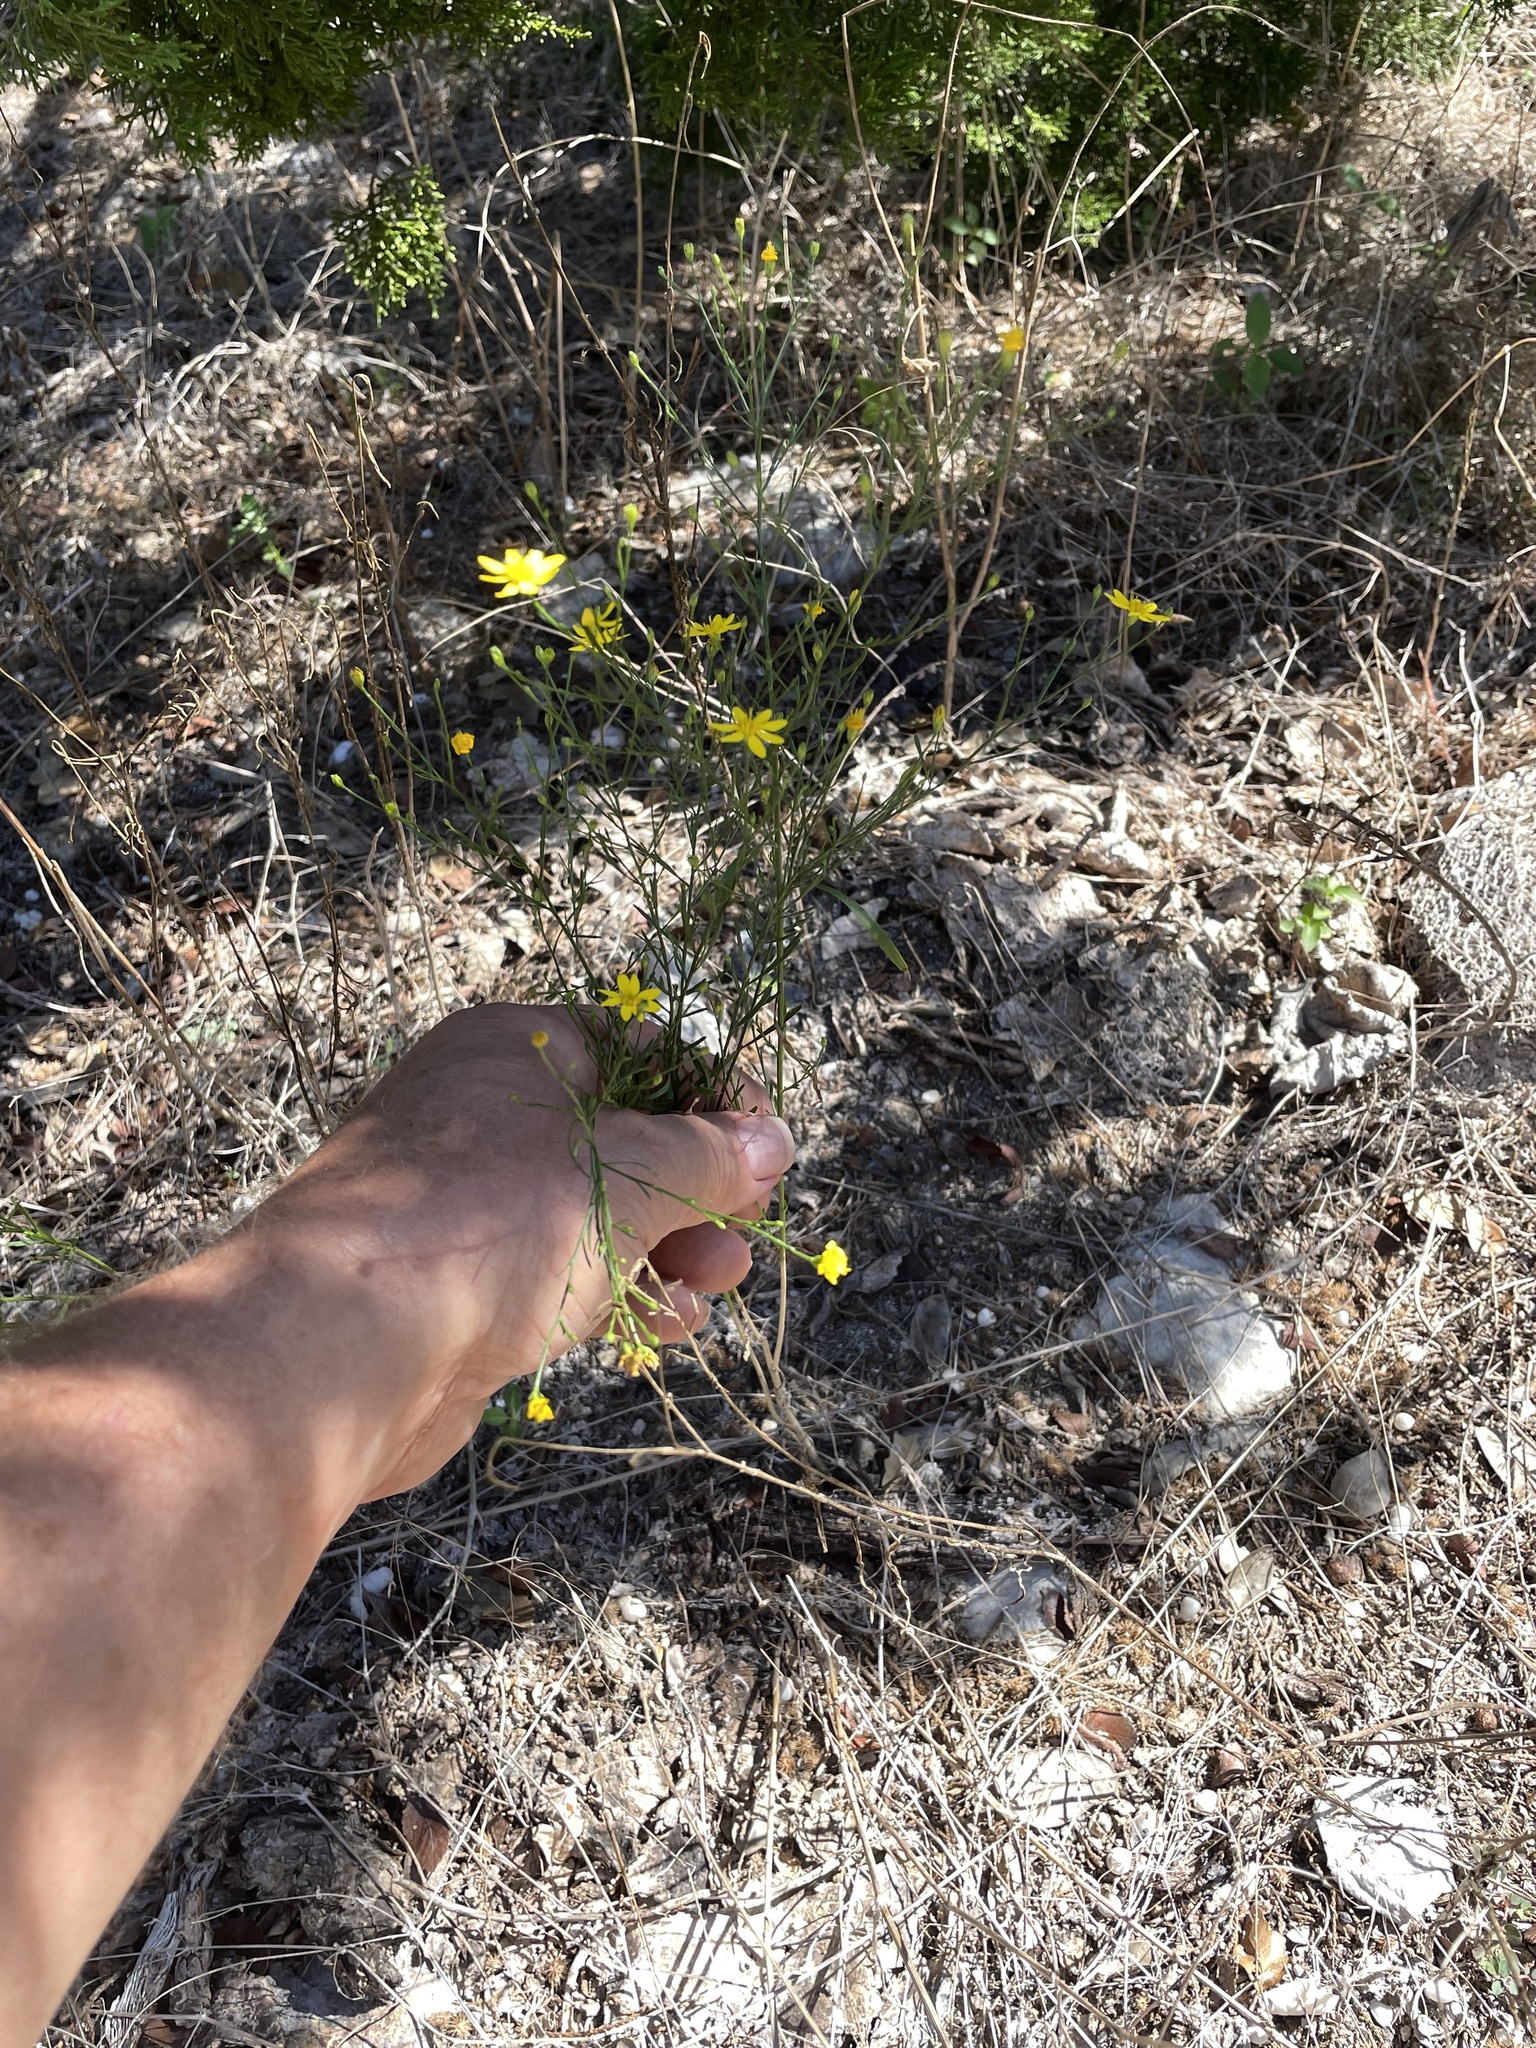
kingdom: Plantae
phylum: Tracheophyta
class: Magnoliopsida
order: Asterales
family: Asteraceae
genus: Gutierrezia
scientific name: Gutierrezia texana
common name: Texas snakeweed
